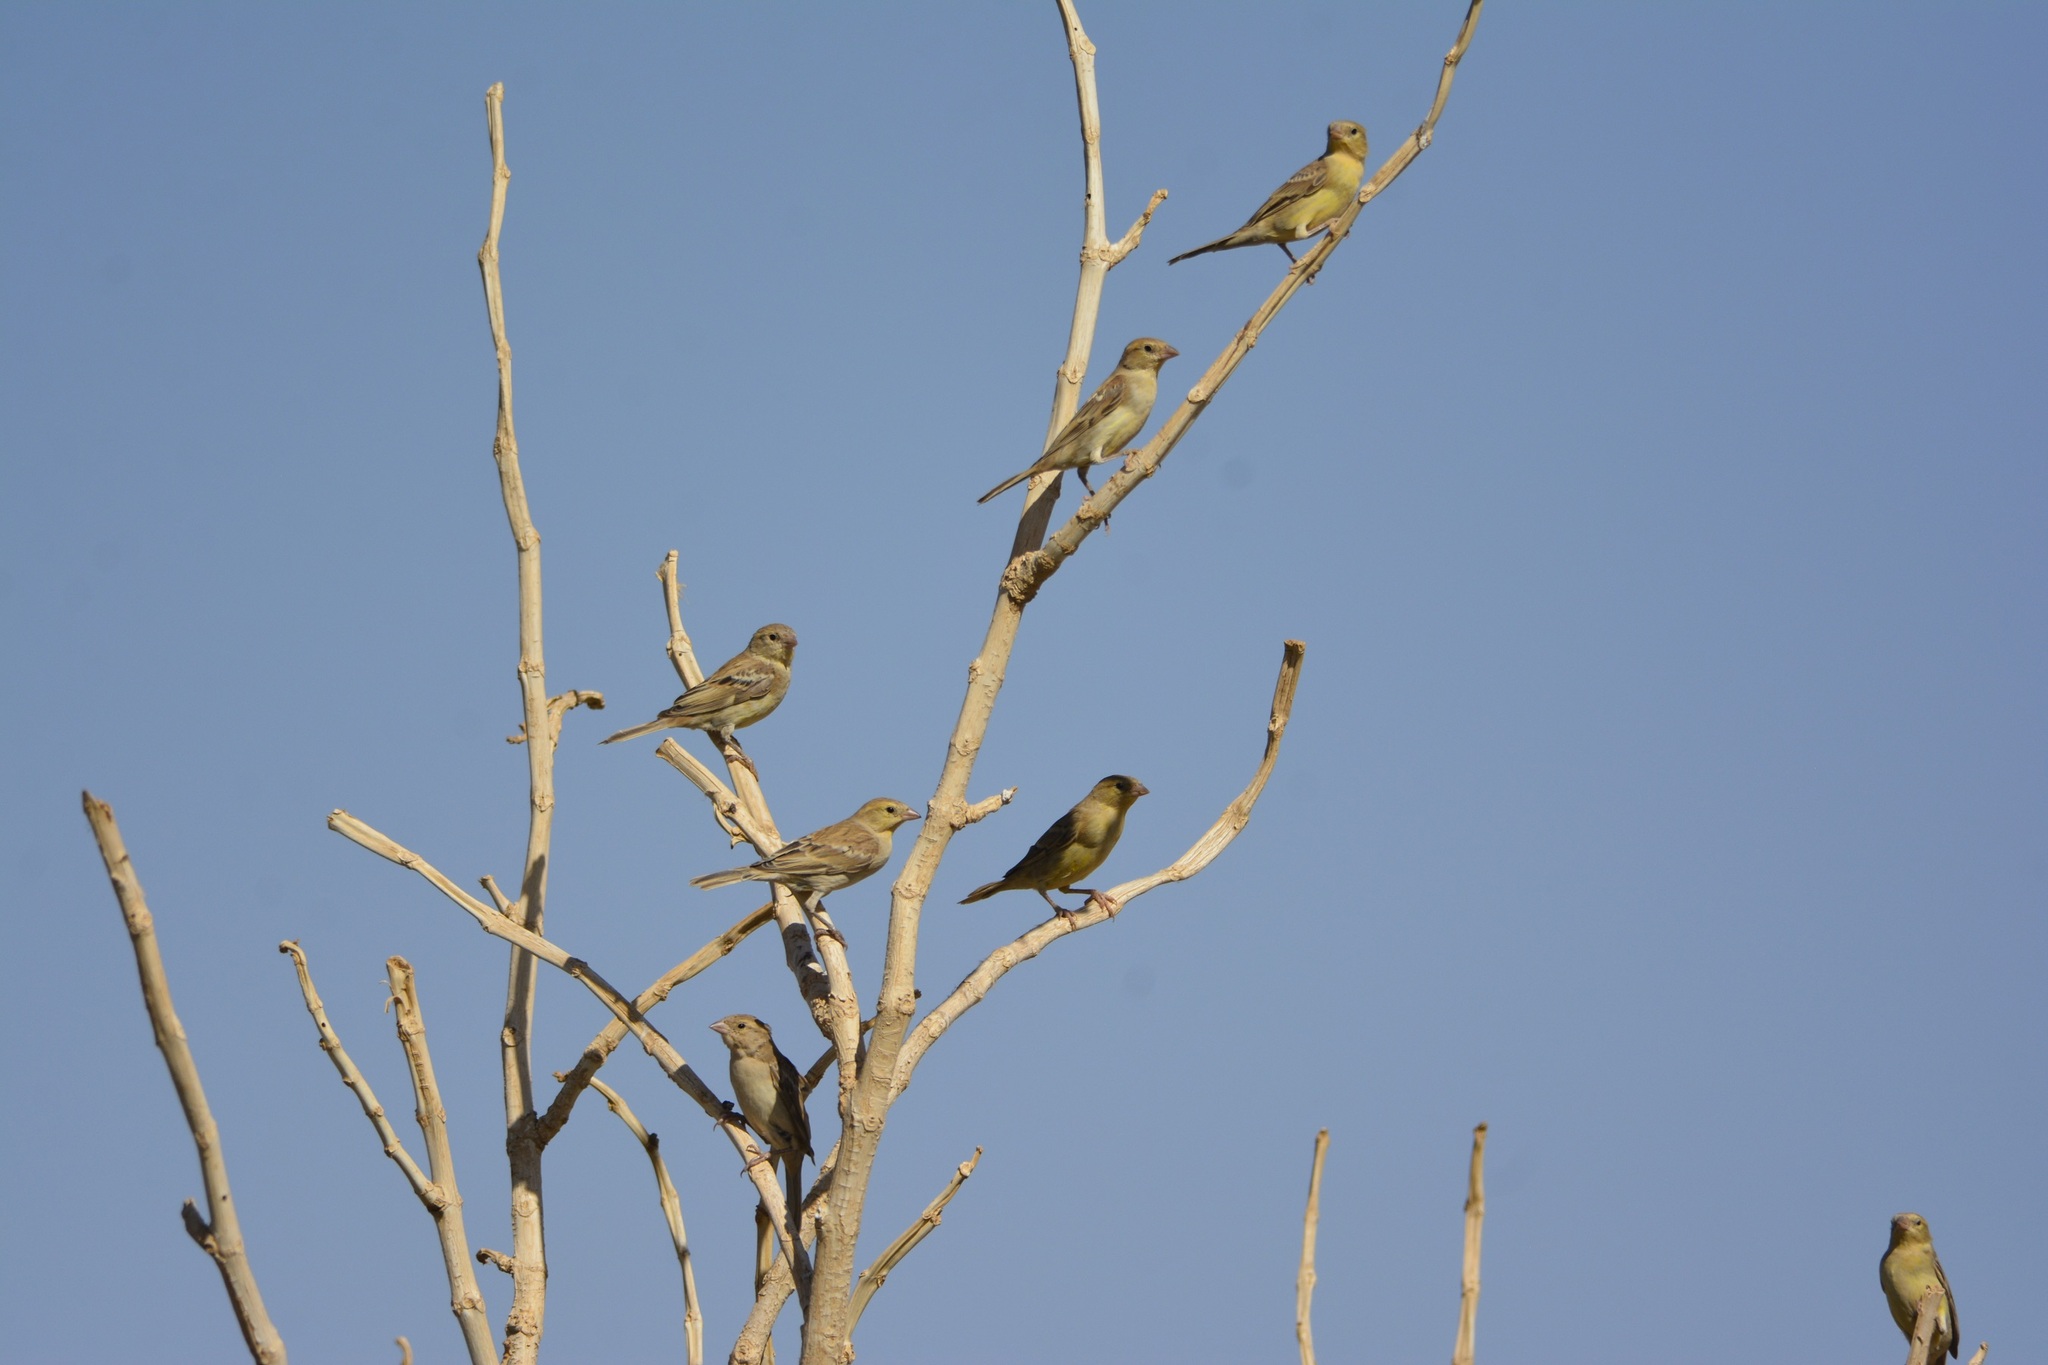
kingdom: Animalia
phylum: Chordata
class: Aves
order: Passeriformes
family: Passeridae
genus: Passer
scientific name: Passer luteus
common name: Sudan golden sparrow
